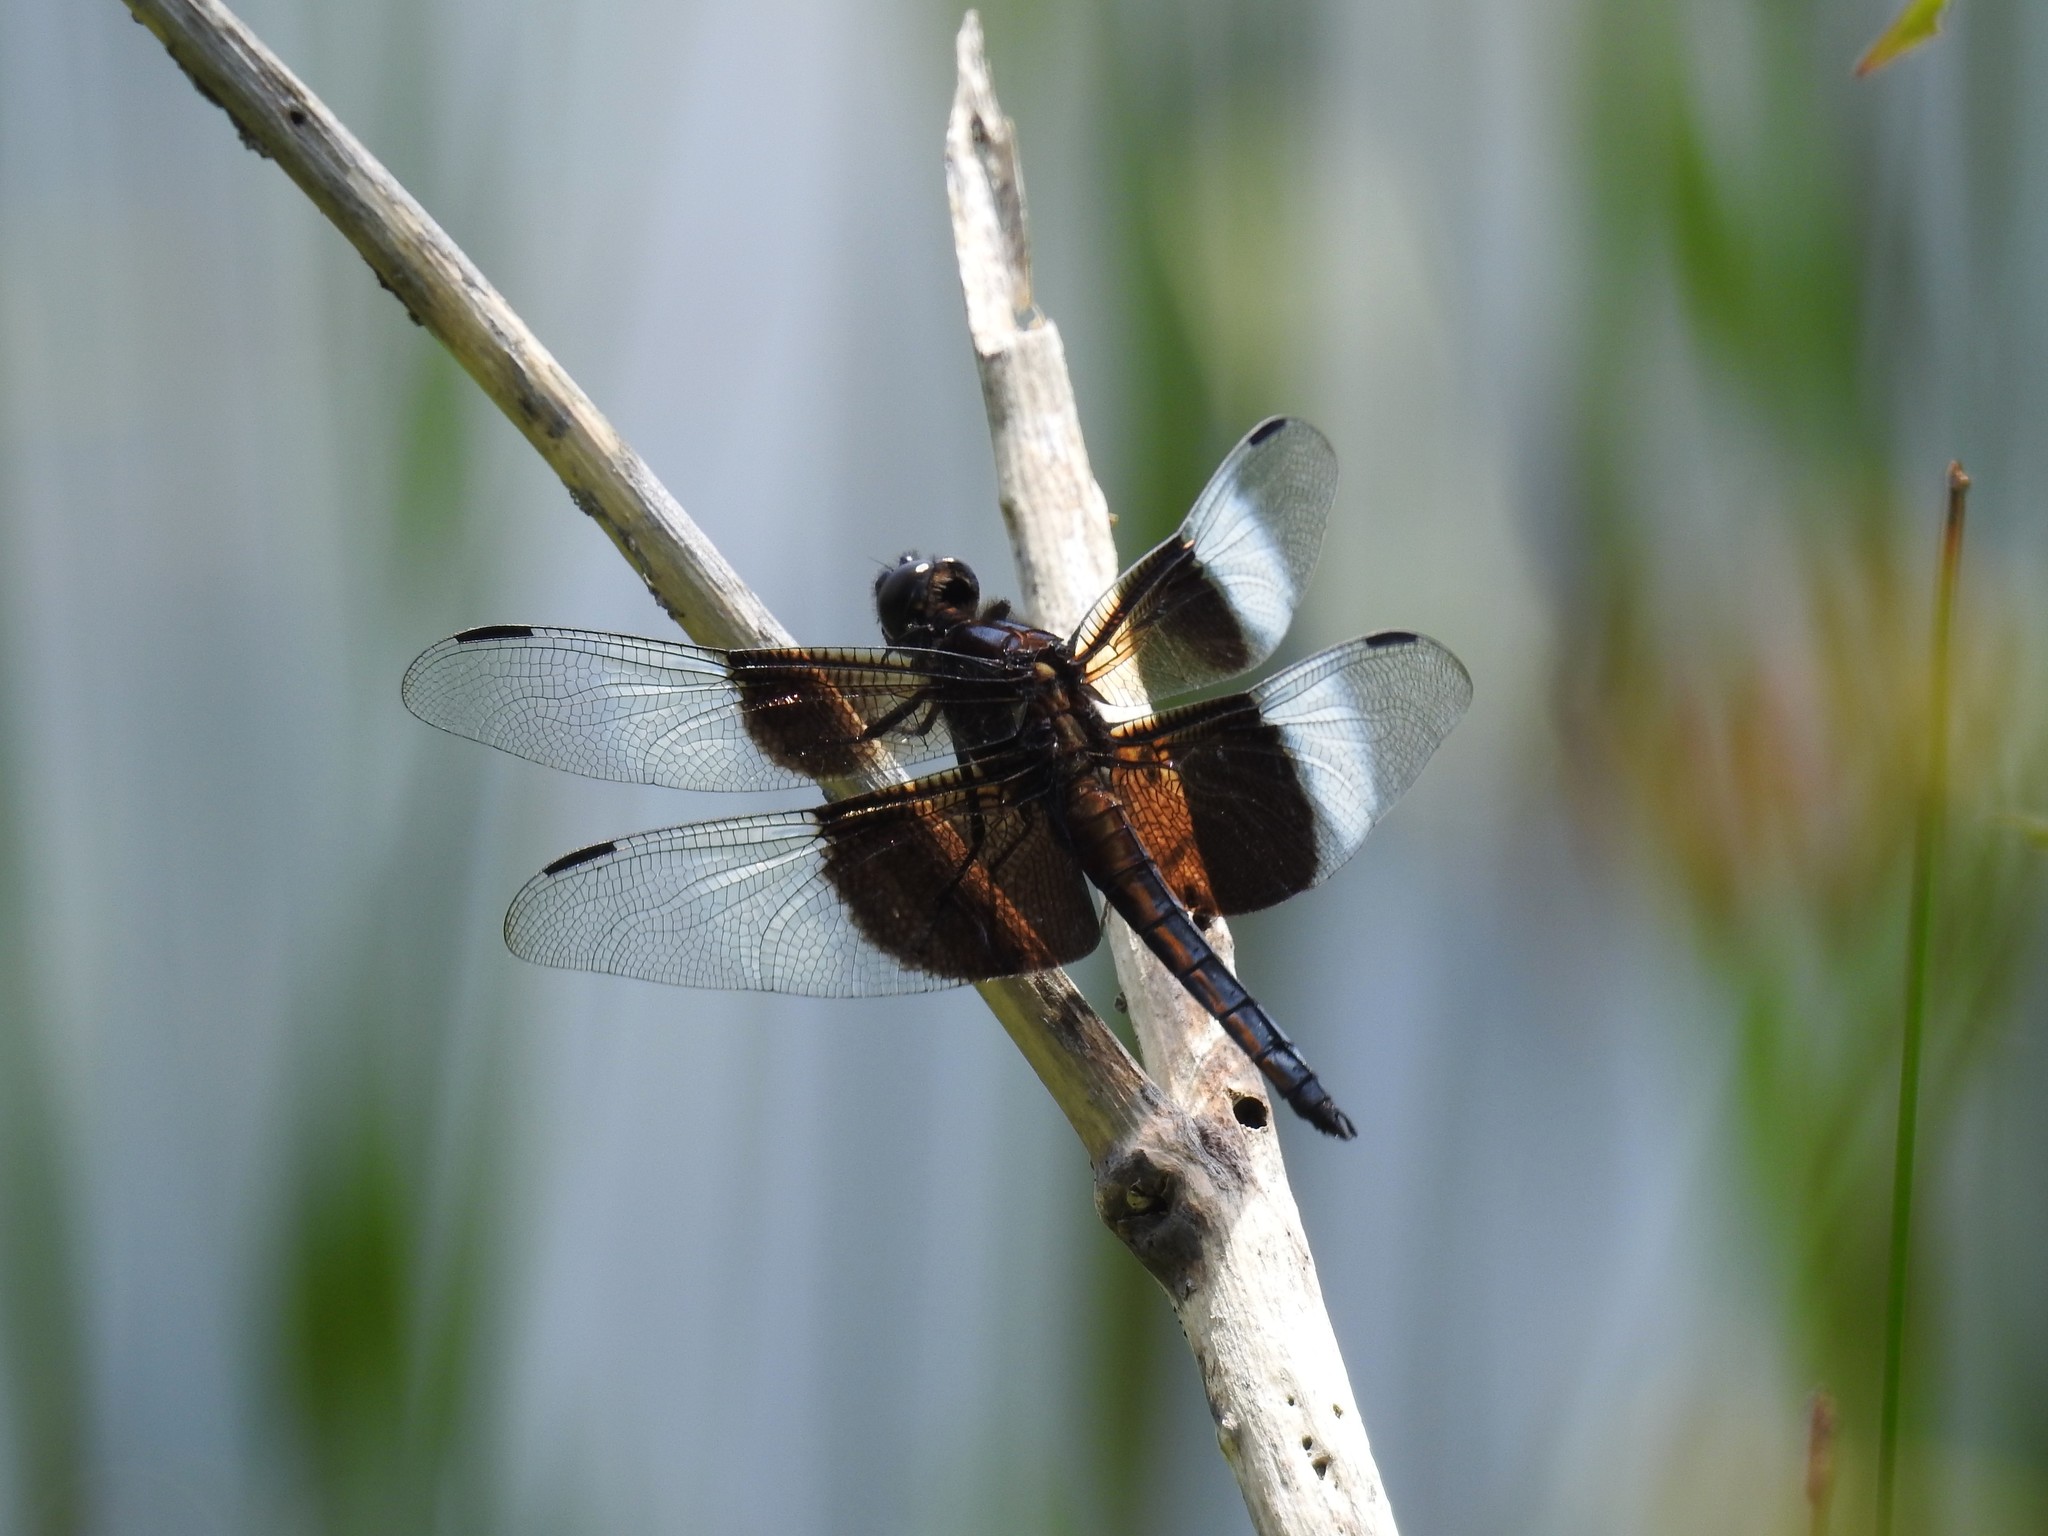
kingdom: Animalia
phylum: Arthropoda
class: Insecta
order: Odonata
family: Libellulidae
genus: Libellula
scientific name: Libellula luctuosa
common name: Widow skimmer
